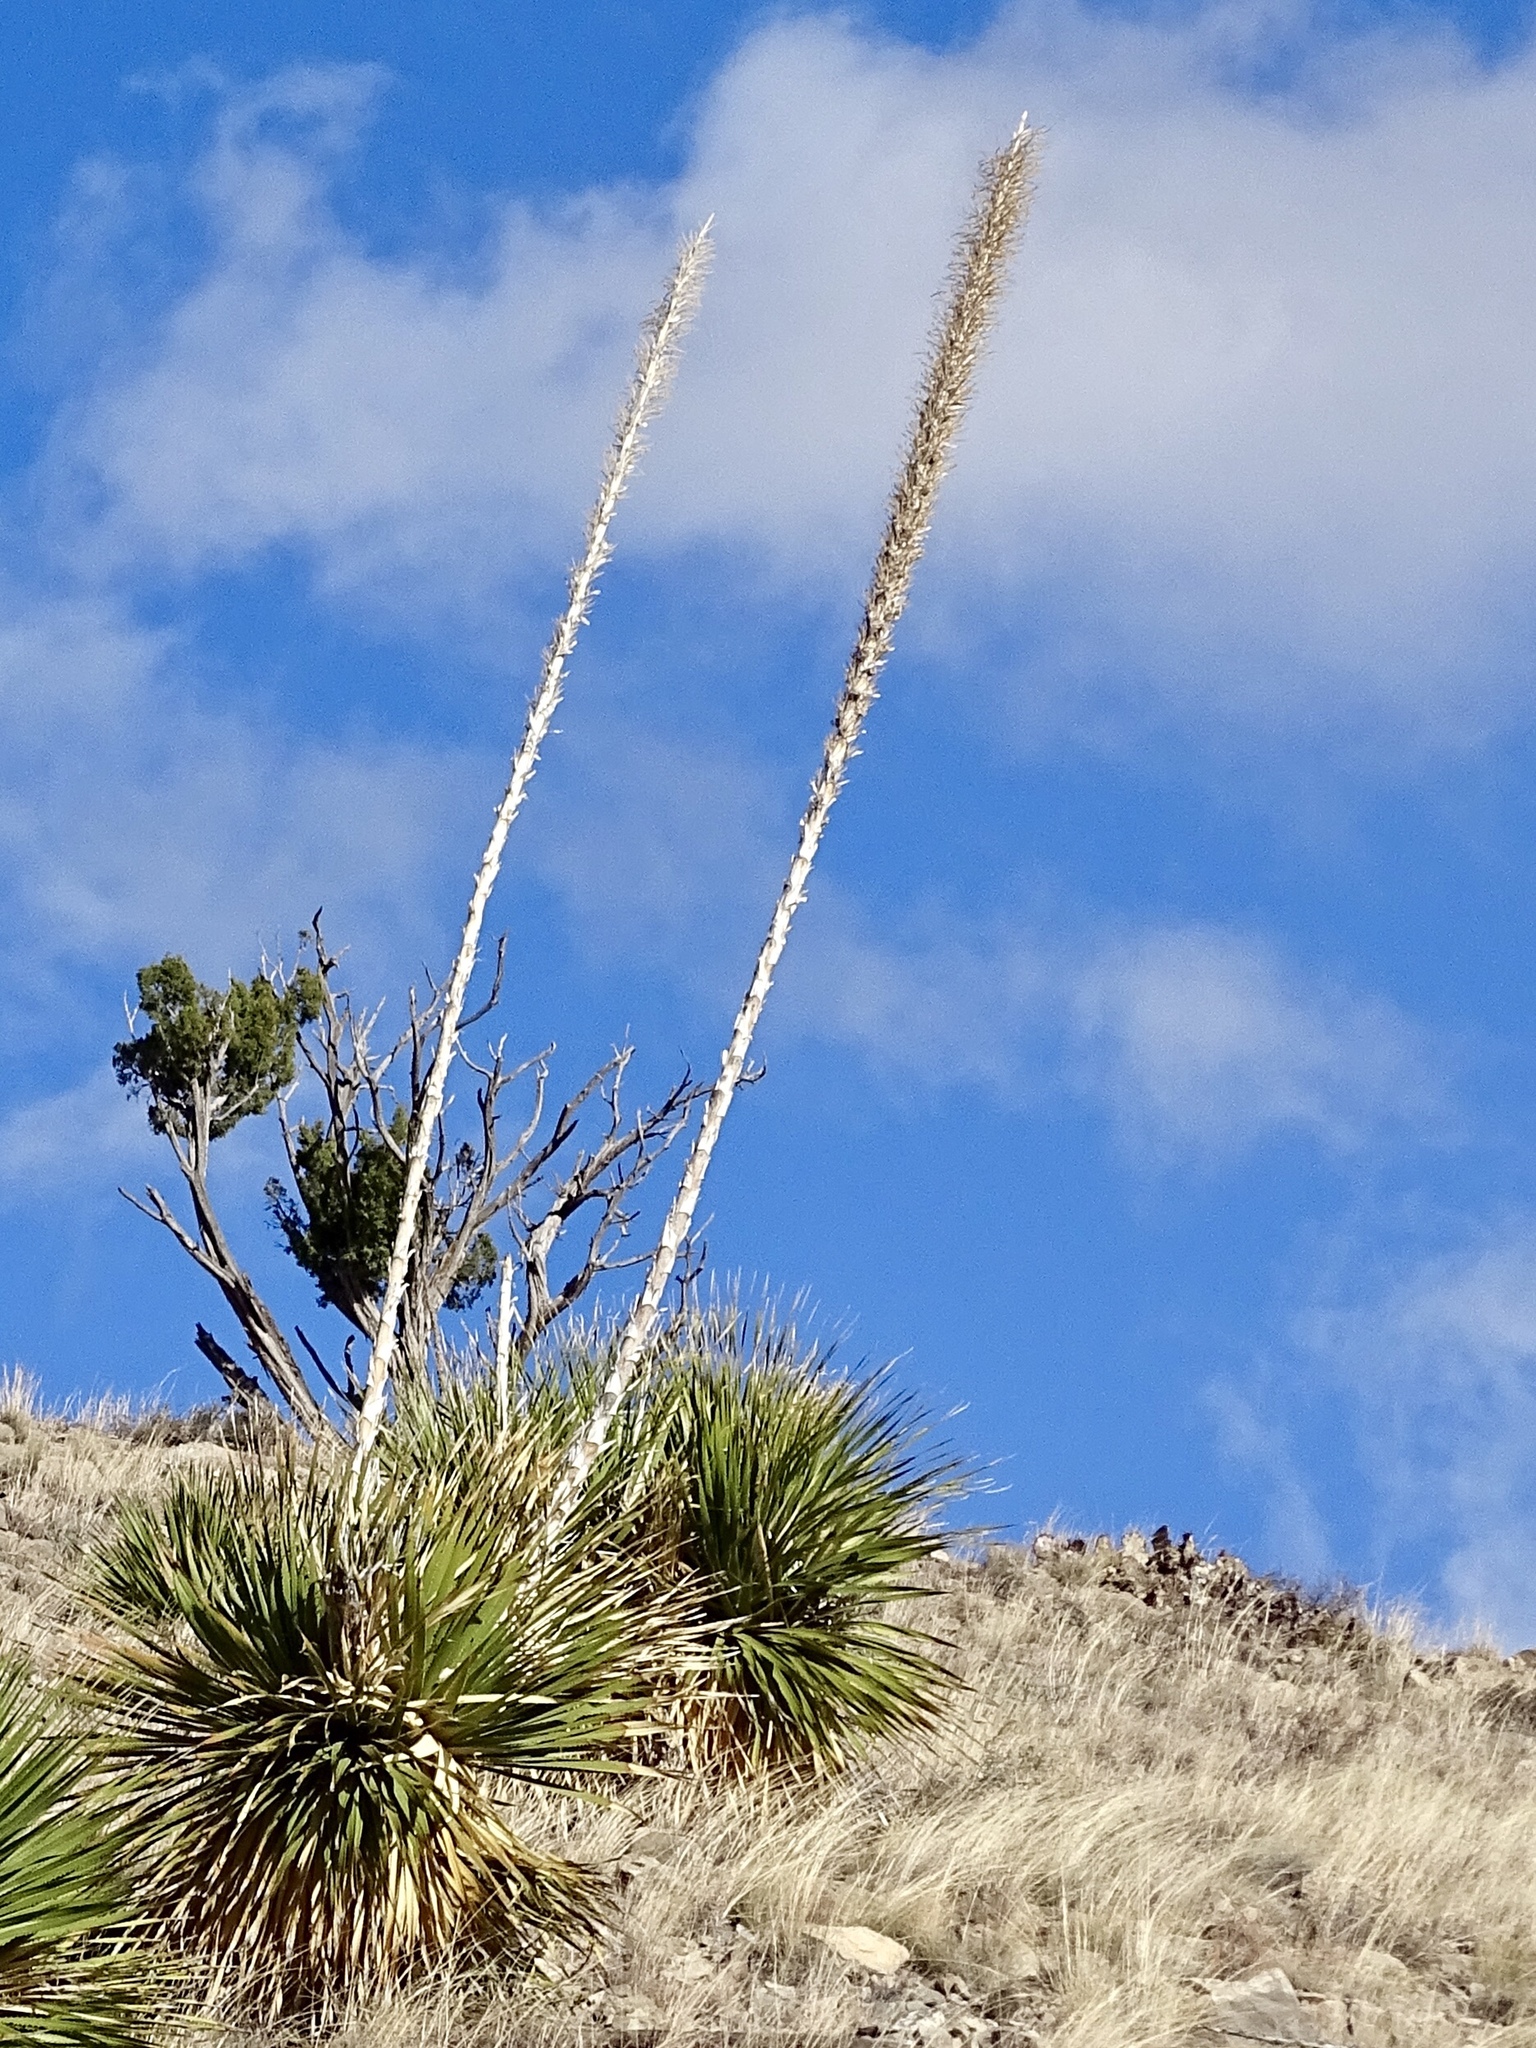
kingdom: Plantae
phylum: Tracheophyta
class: Liliopsida
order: Asparagales
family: Asparagaceae
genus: Dasylirion
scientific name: Dasylirion wheeleri
